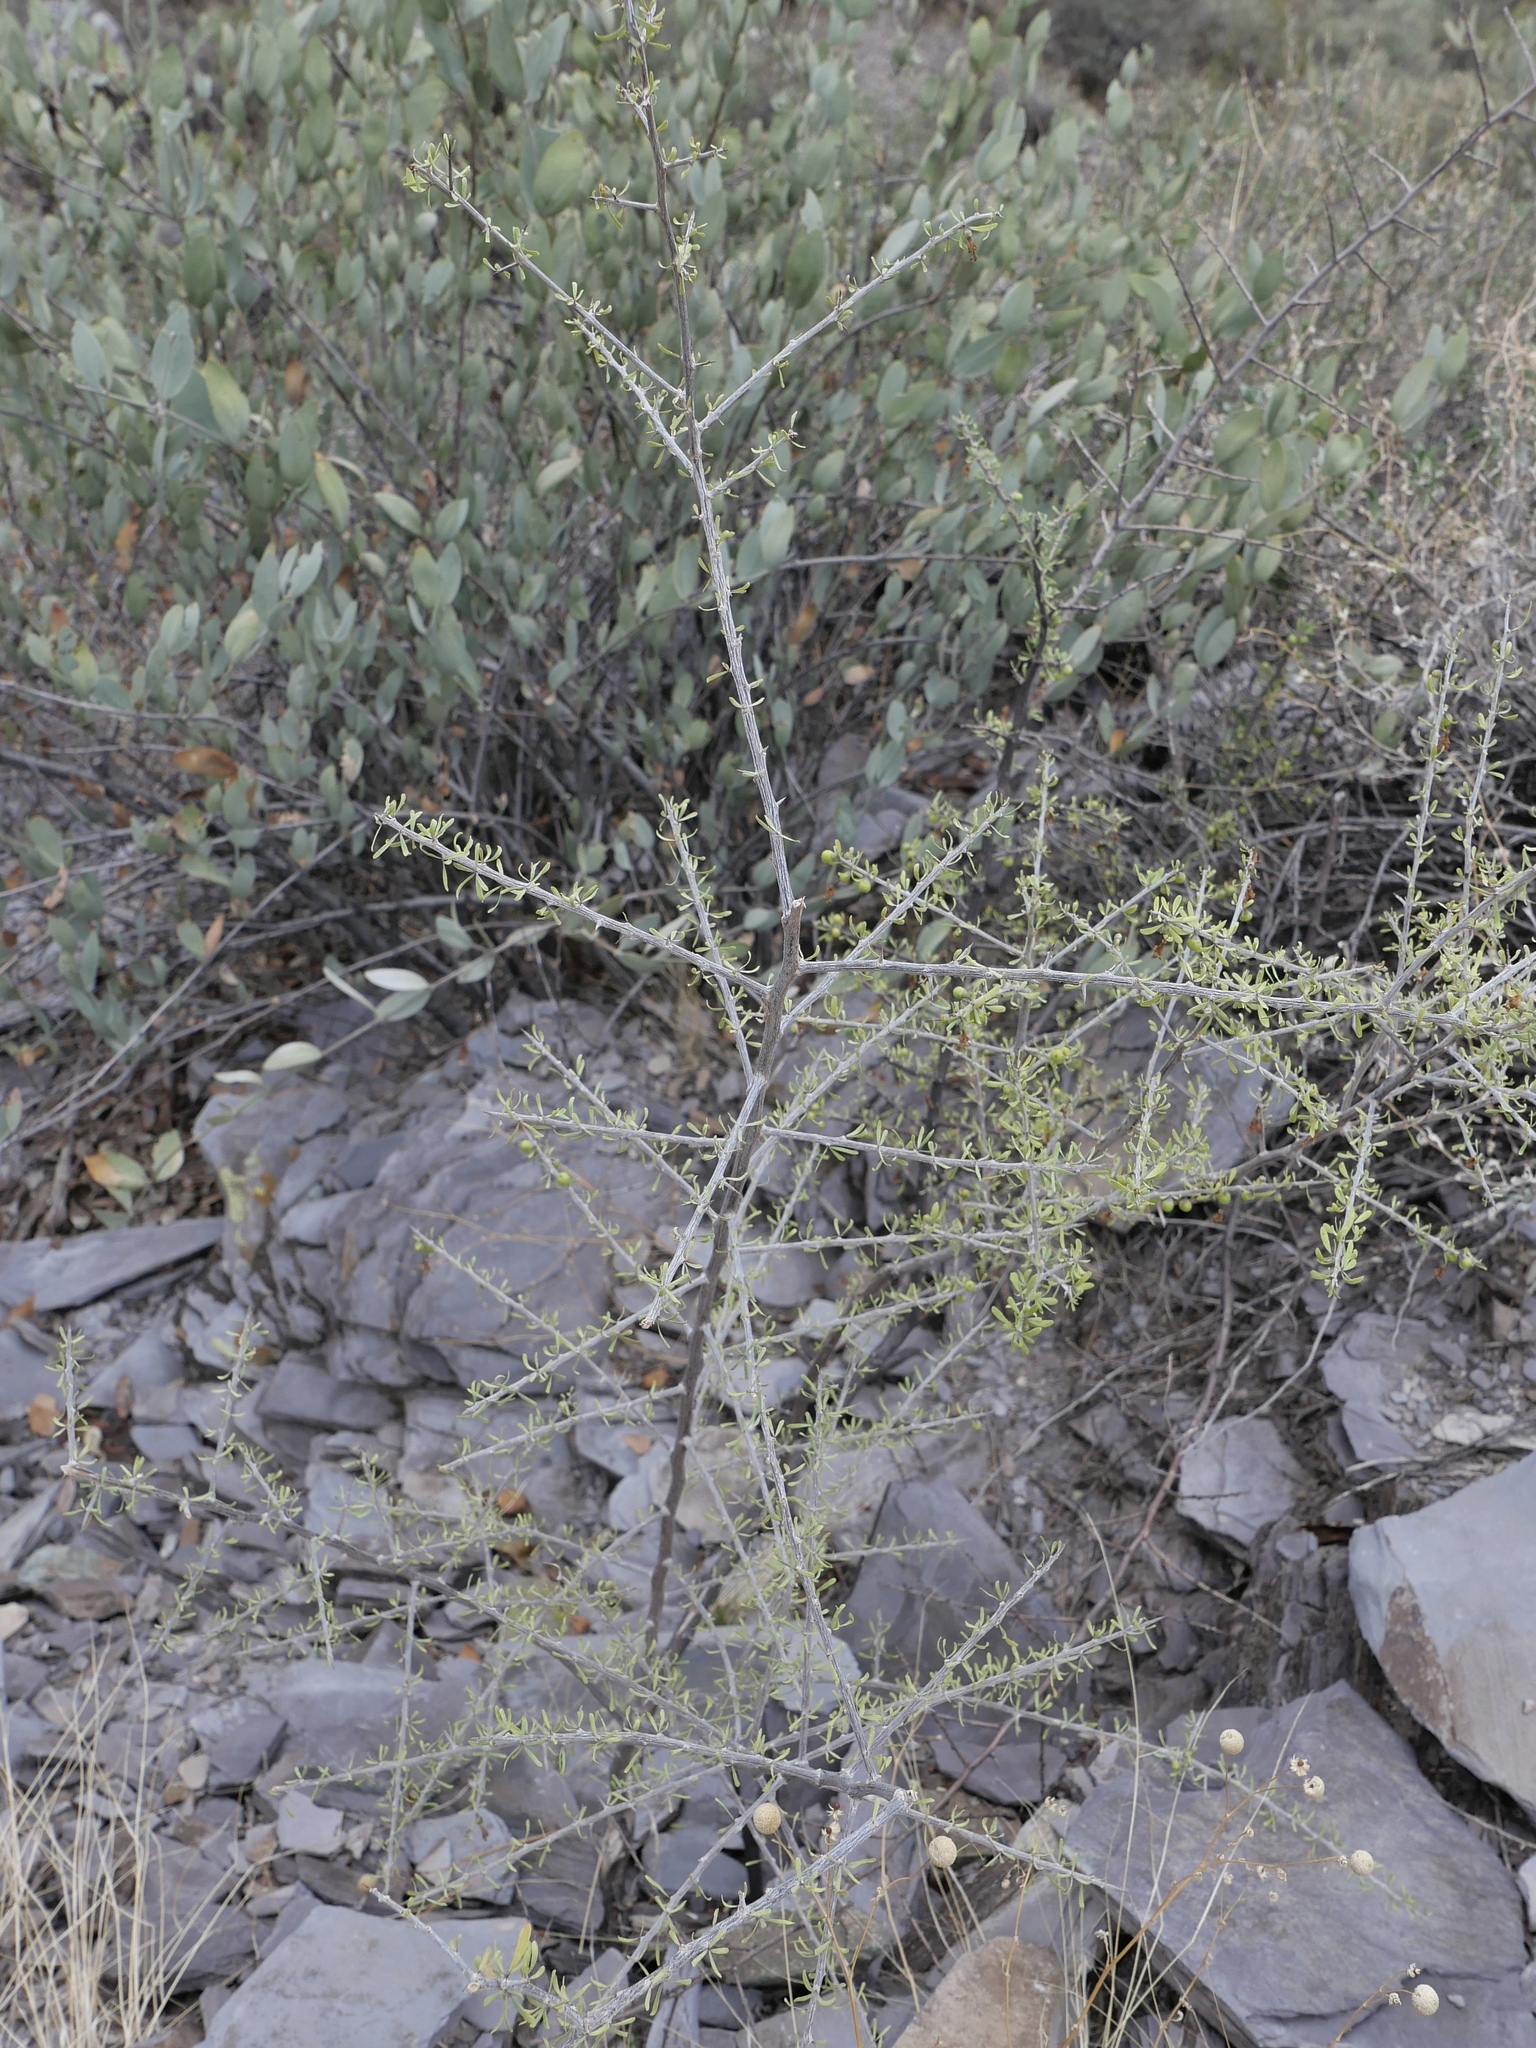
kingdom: Plantae
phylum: Tracheophyta
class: Magnoliopsida
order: Solanales
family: Solanaceae
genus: Lycium
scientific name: Lycium berlandieri
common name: Berlandier wolfberry
